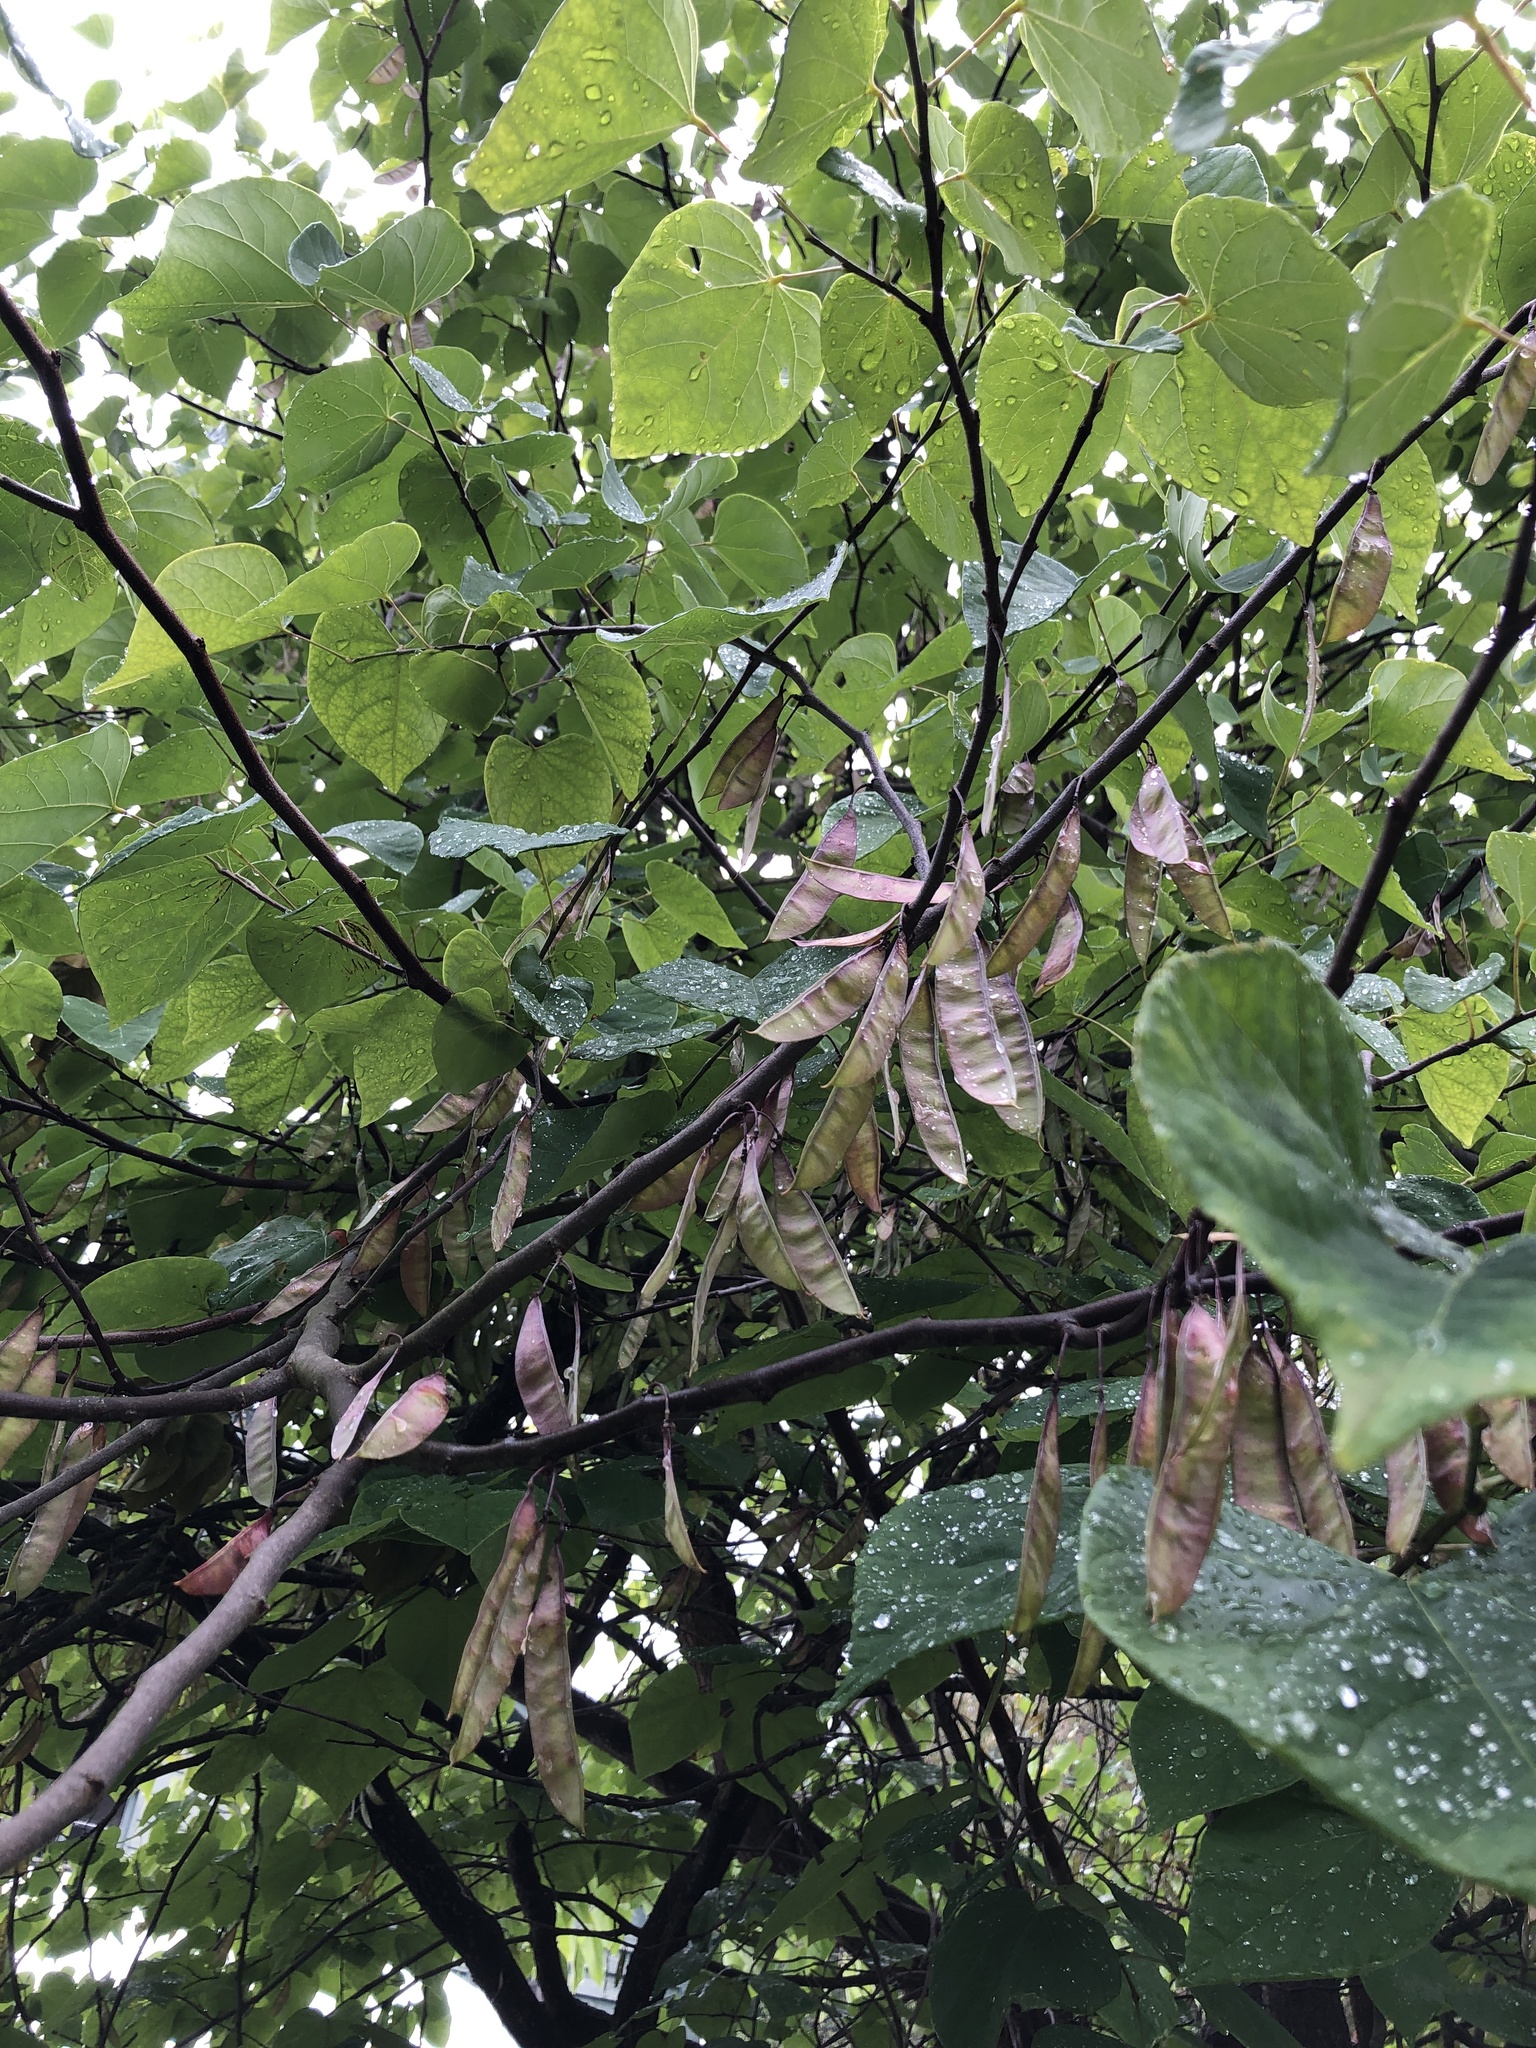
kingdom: Plantae
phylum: Tracheophyta
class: Magnoliopsida
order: Fabales
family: Fabaceae
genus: Cercis
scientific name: Cercis canadensis
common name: Eastern redbud
